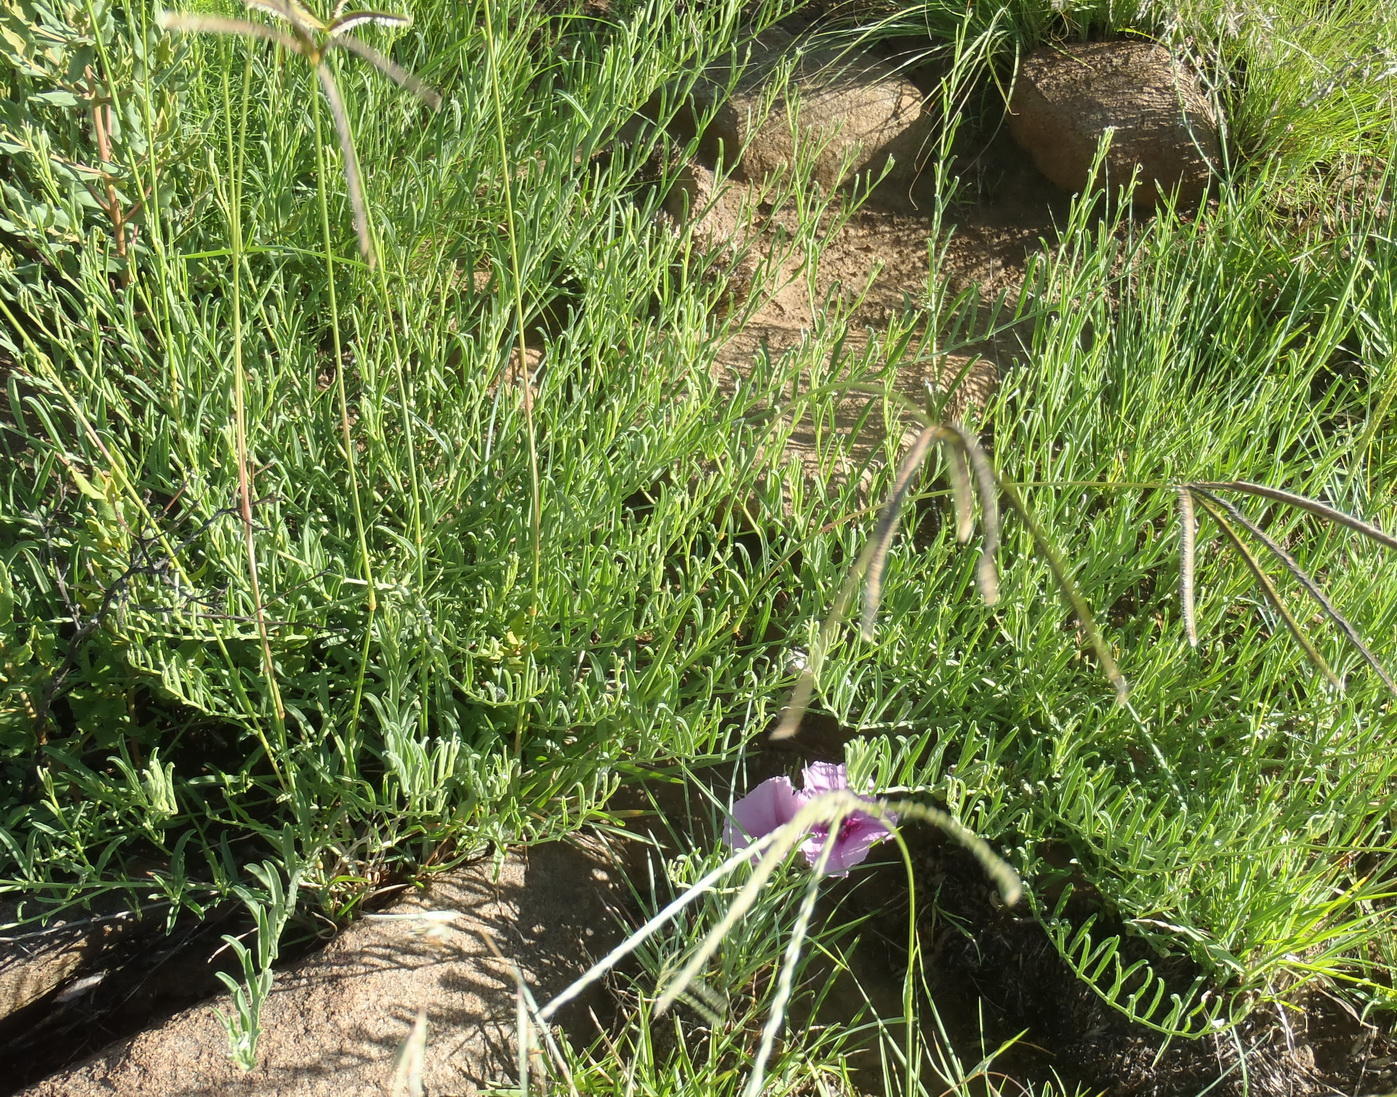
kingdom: Plantae
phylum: Tracheophyta
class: Magnoliopsida
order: Solanales
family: Convolvulaceae
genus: Ipomoea
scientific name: Ipomoea oenotheroides
